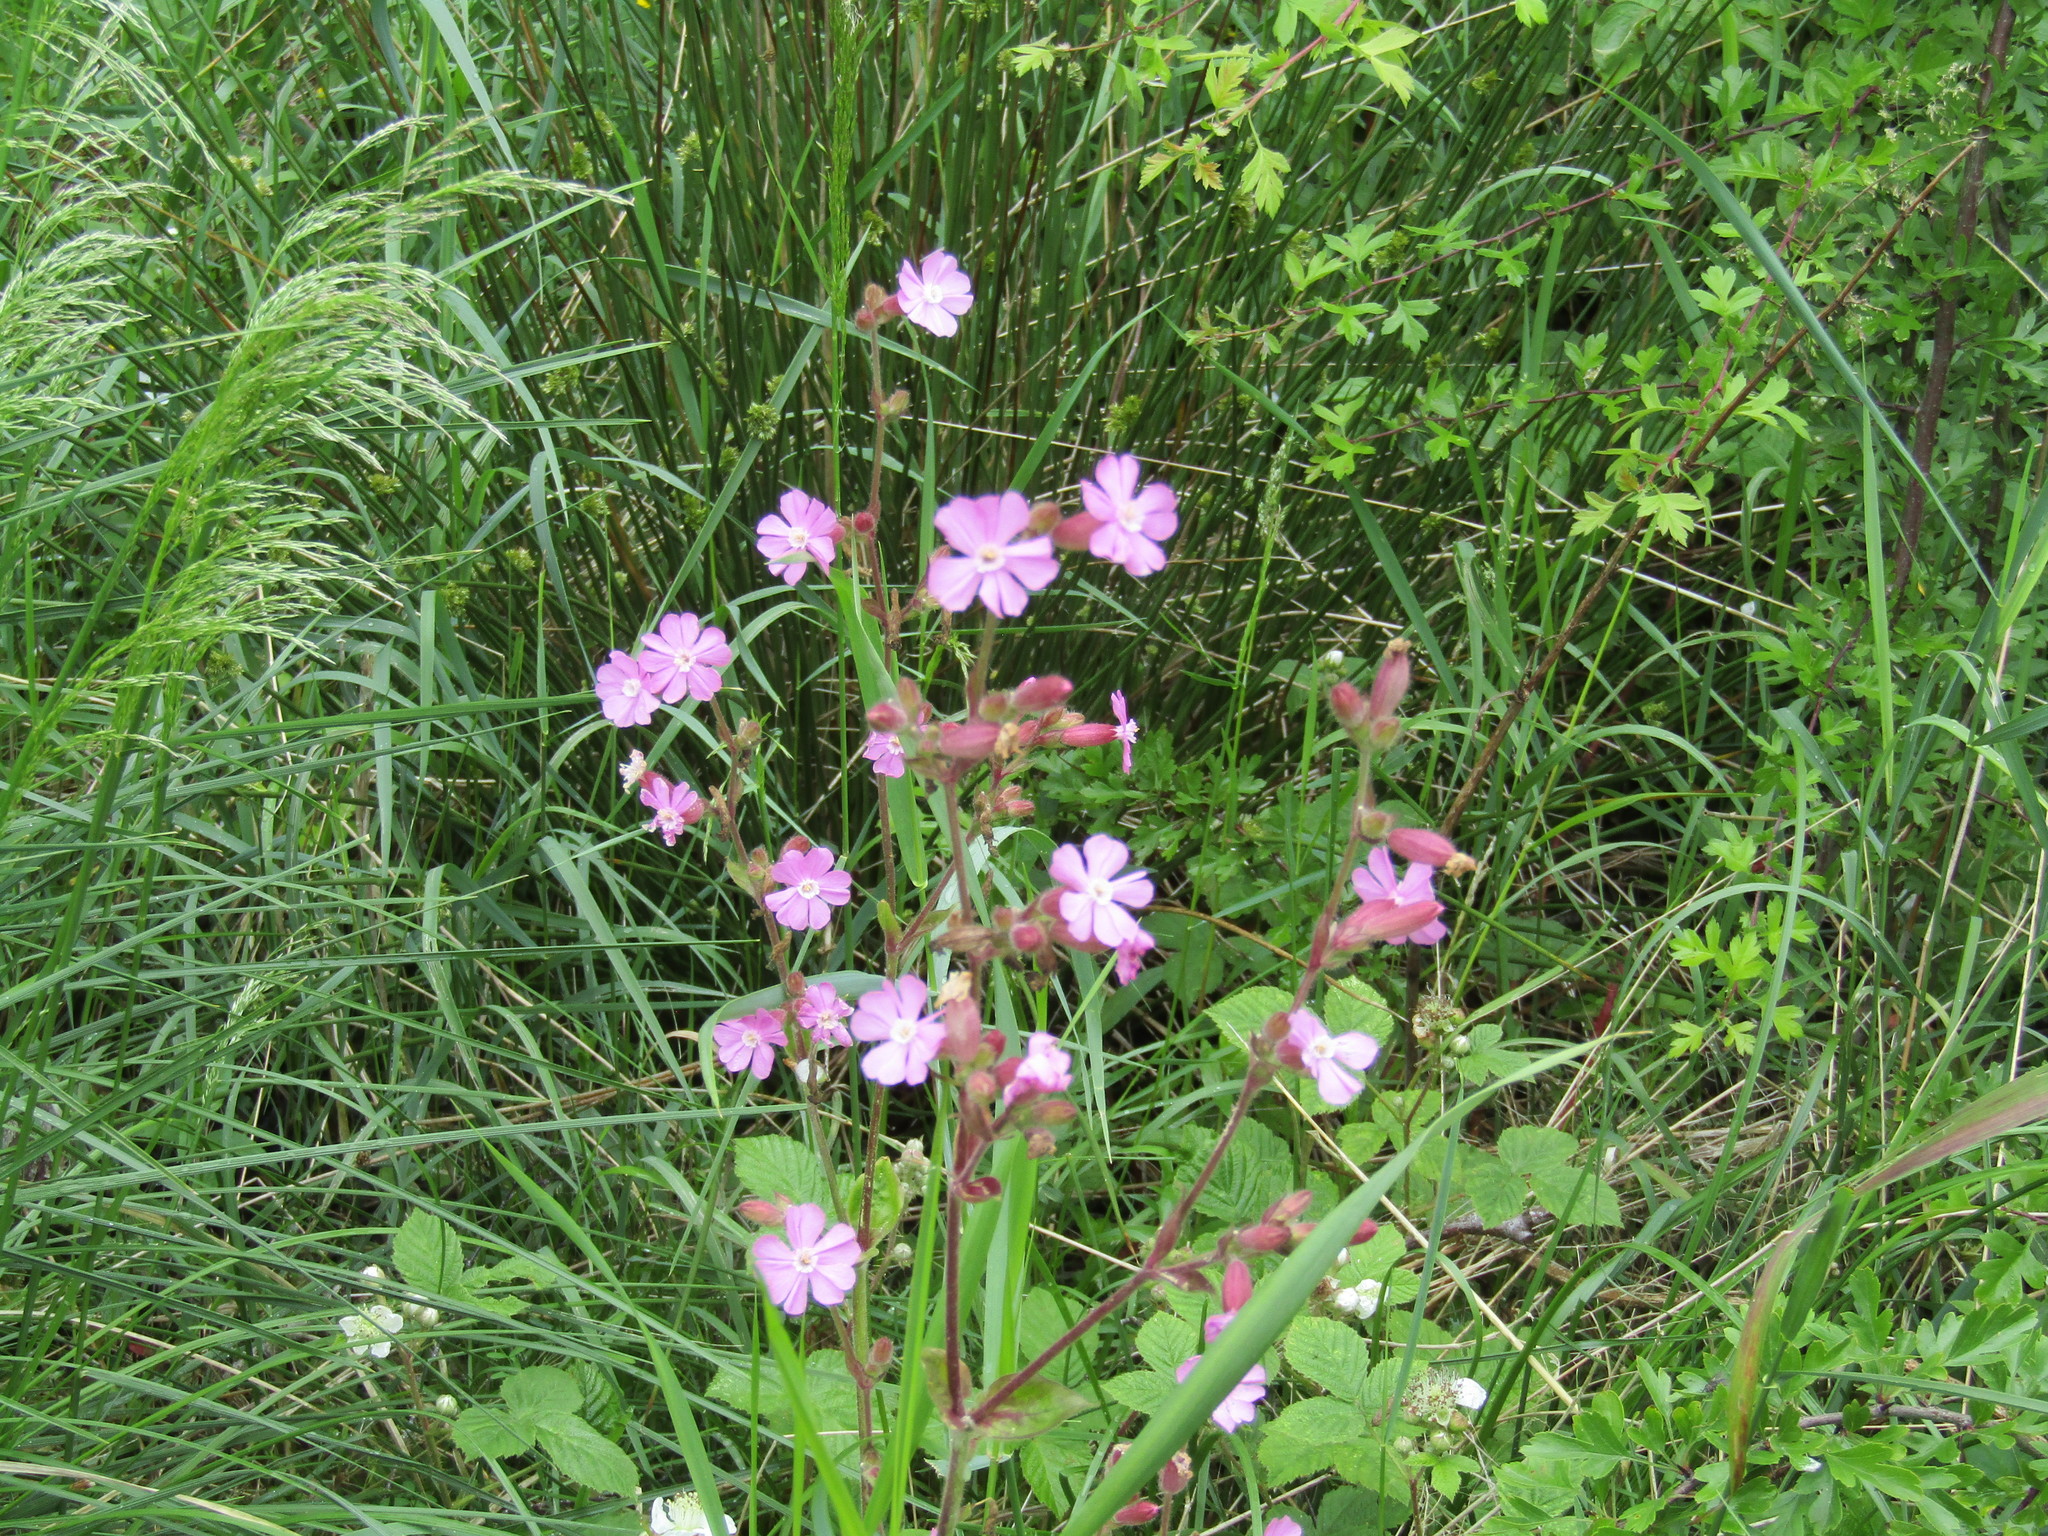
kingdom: Plantae
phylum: Tracheophyta
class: Magnoliopsida
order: Caryophyllales
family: Caryophyllaceae
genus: Silene
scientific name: Silene dioica
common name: Red campion
